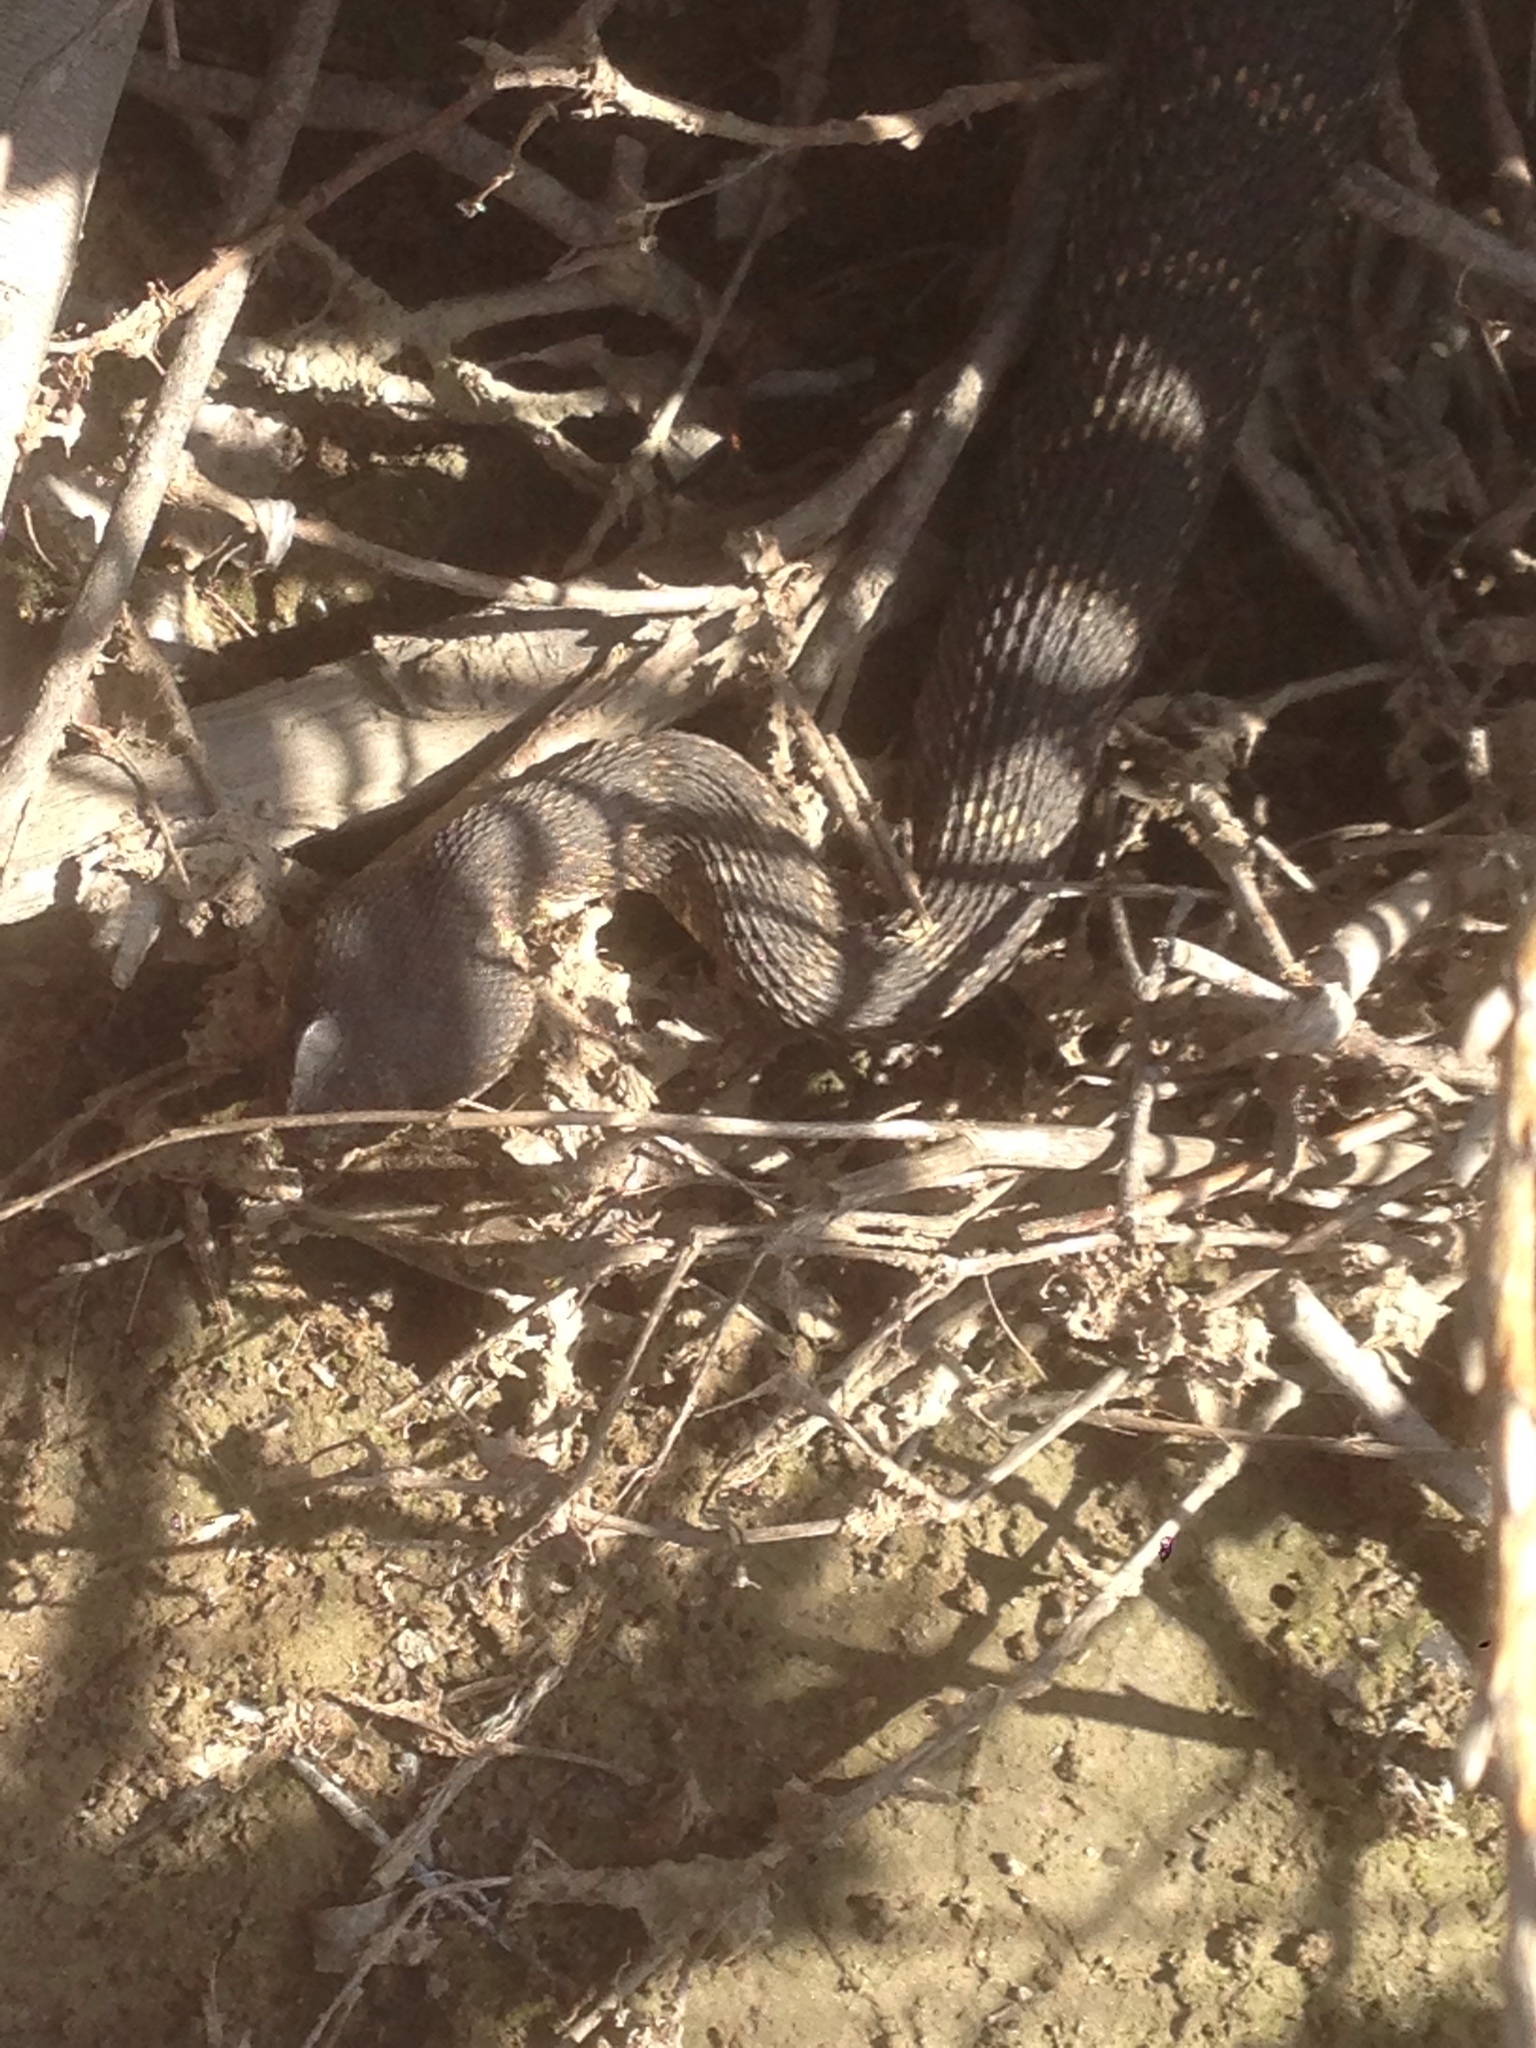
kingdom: Animalia
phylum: Chordata
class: Squamata
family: Viperidae
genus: Crotalus
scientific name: Crotalus oreganus
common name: Abyssus
